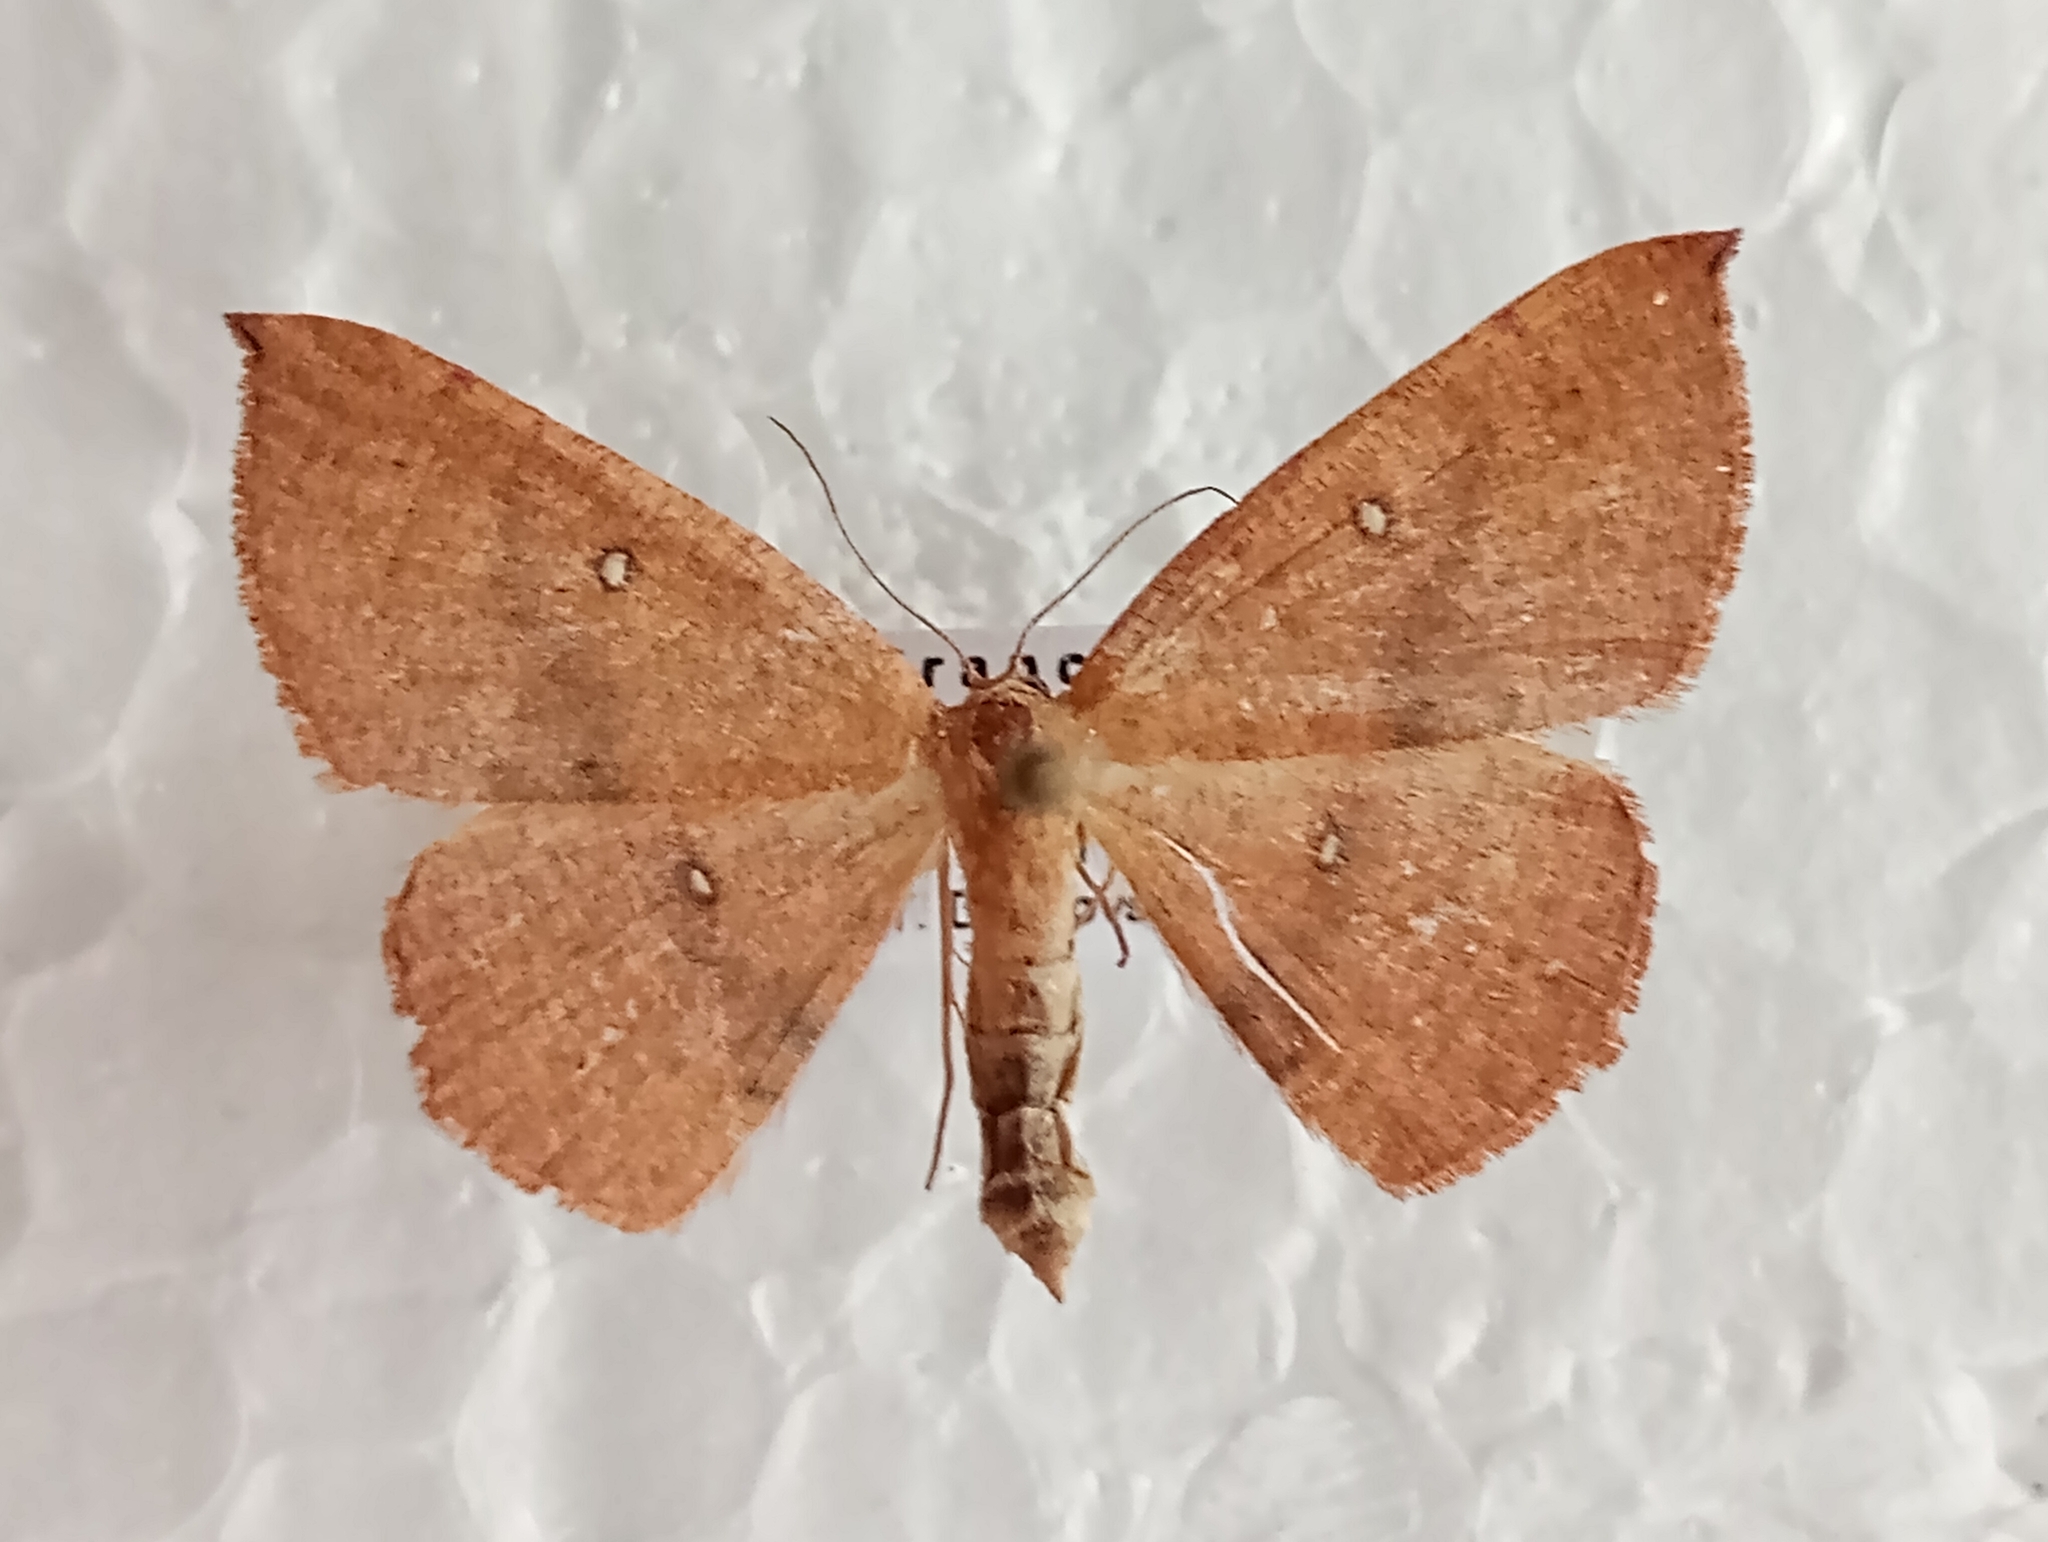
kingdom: Animalia
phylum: Arthropoda
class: Insecta
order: Lepidoptera
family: Geometridae
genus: Cyclophora
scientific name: Cyclophora puppillaria
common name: Blair's mocha
